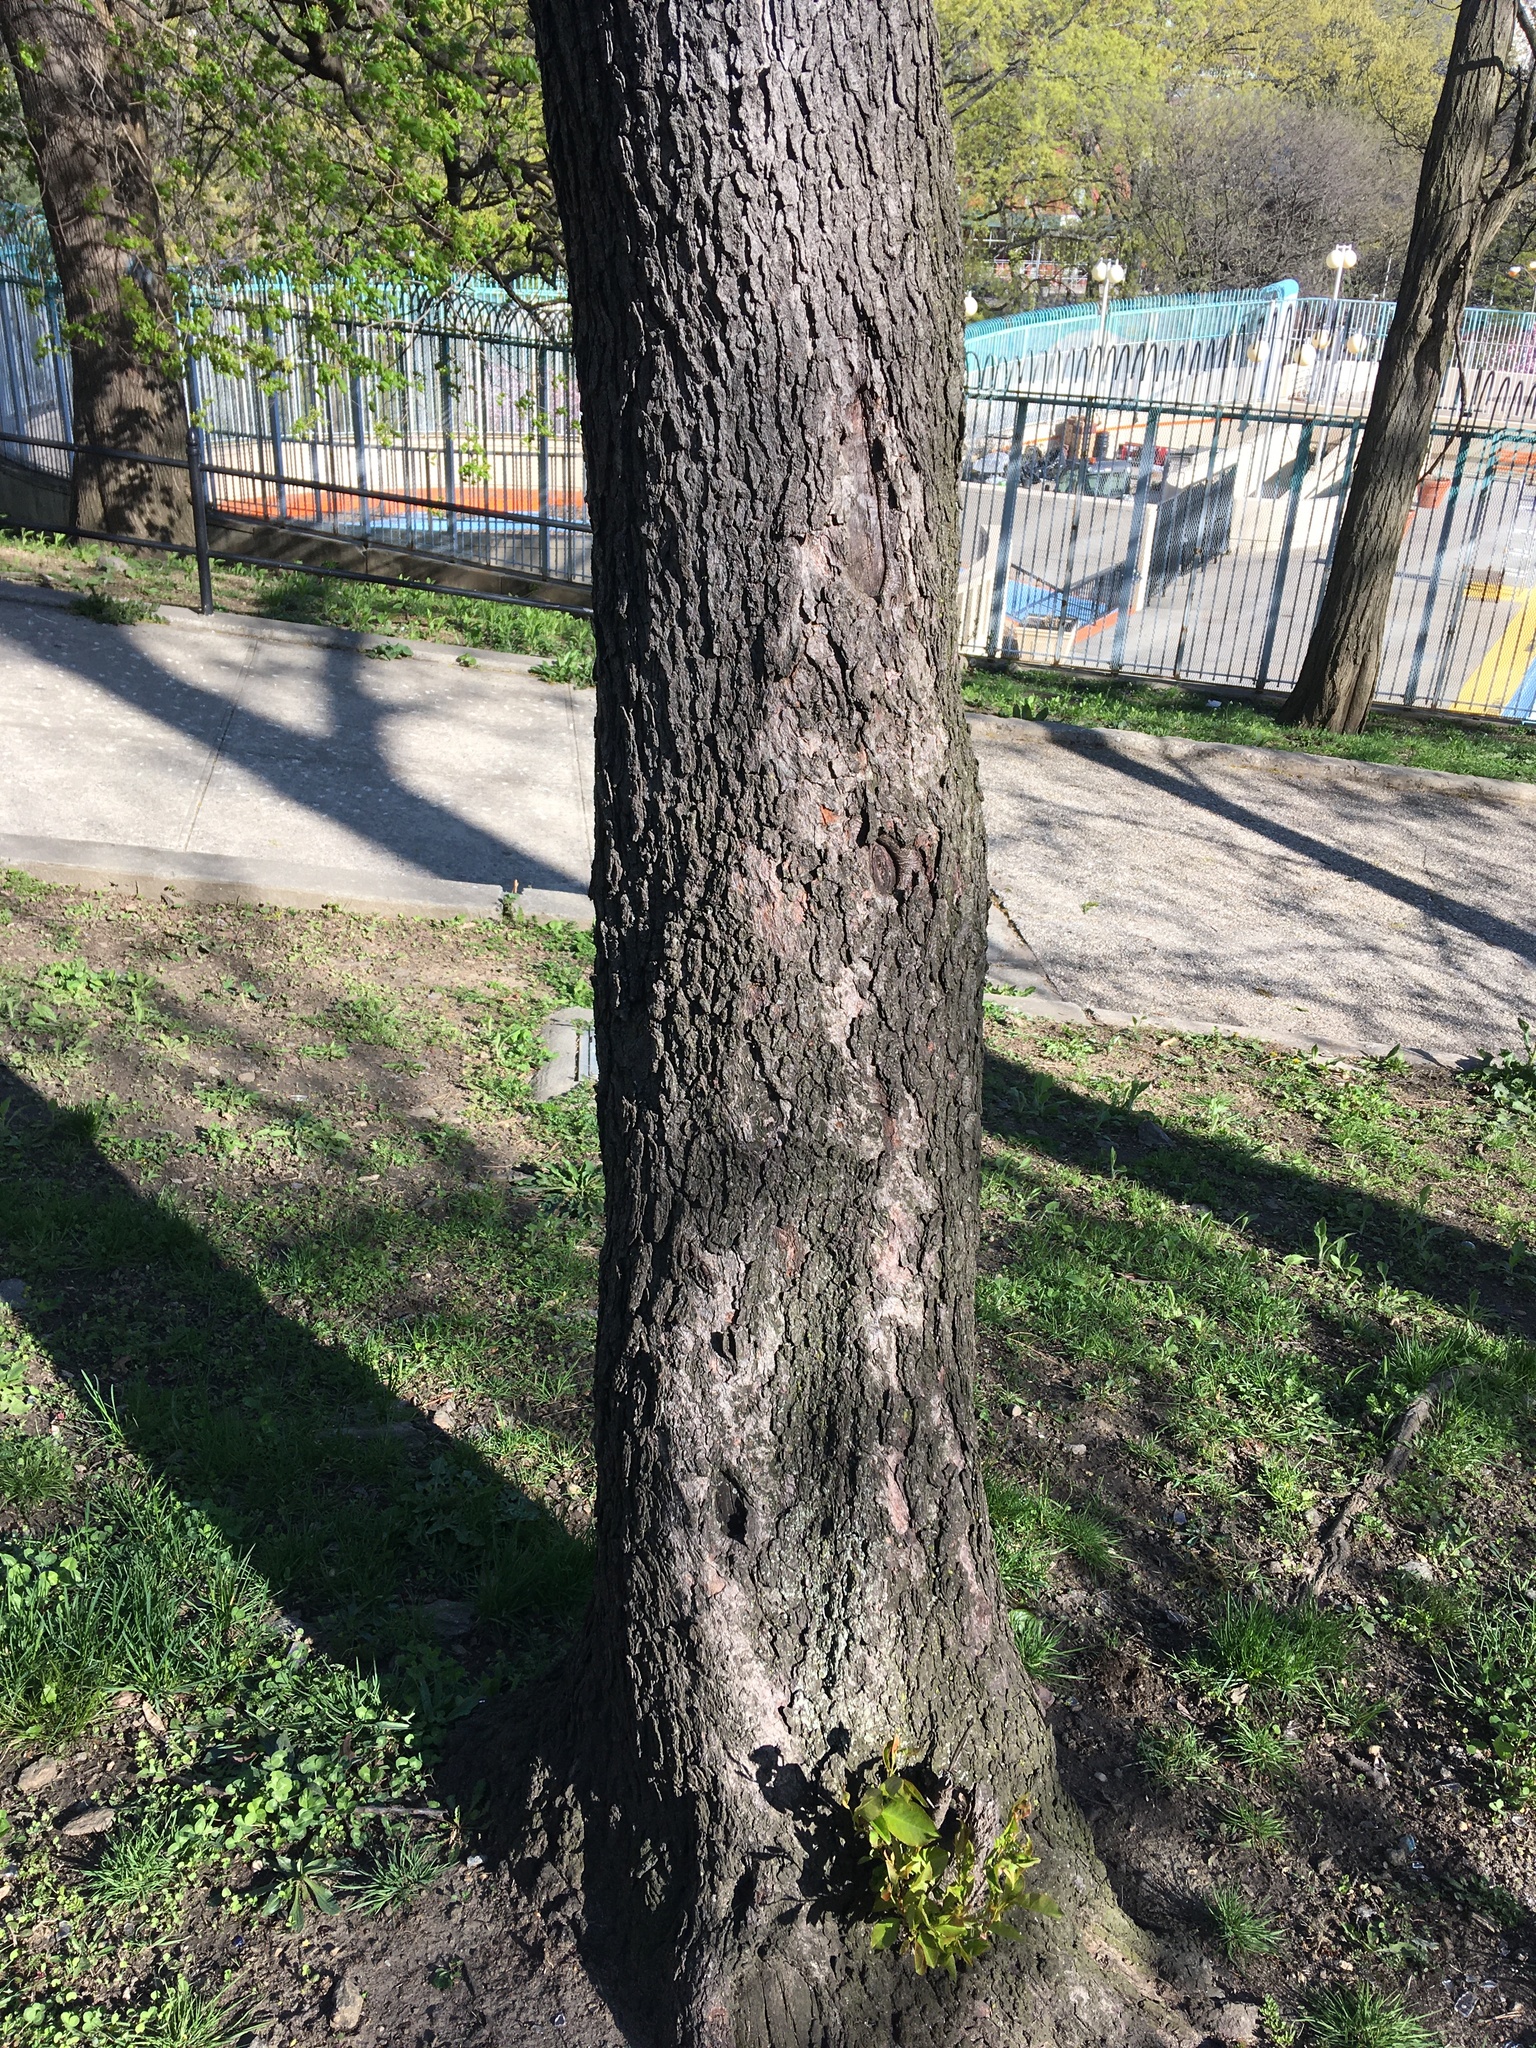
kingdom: Plantae
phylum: Tracheophyta
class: Magnoliopsida
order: Rosales
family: Rosaceae
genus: Prunus
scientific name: Prunus serotina
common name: Black cherry
